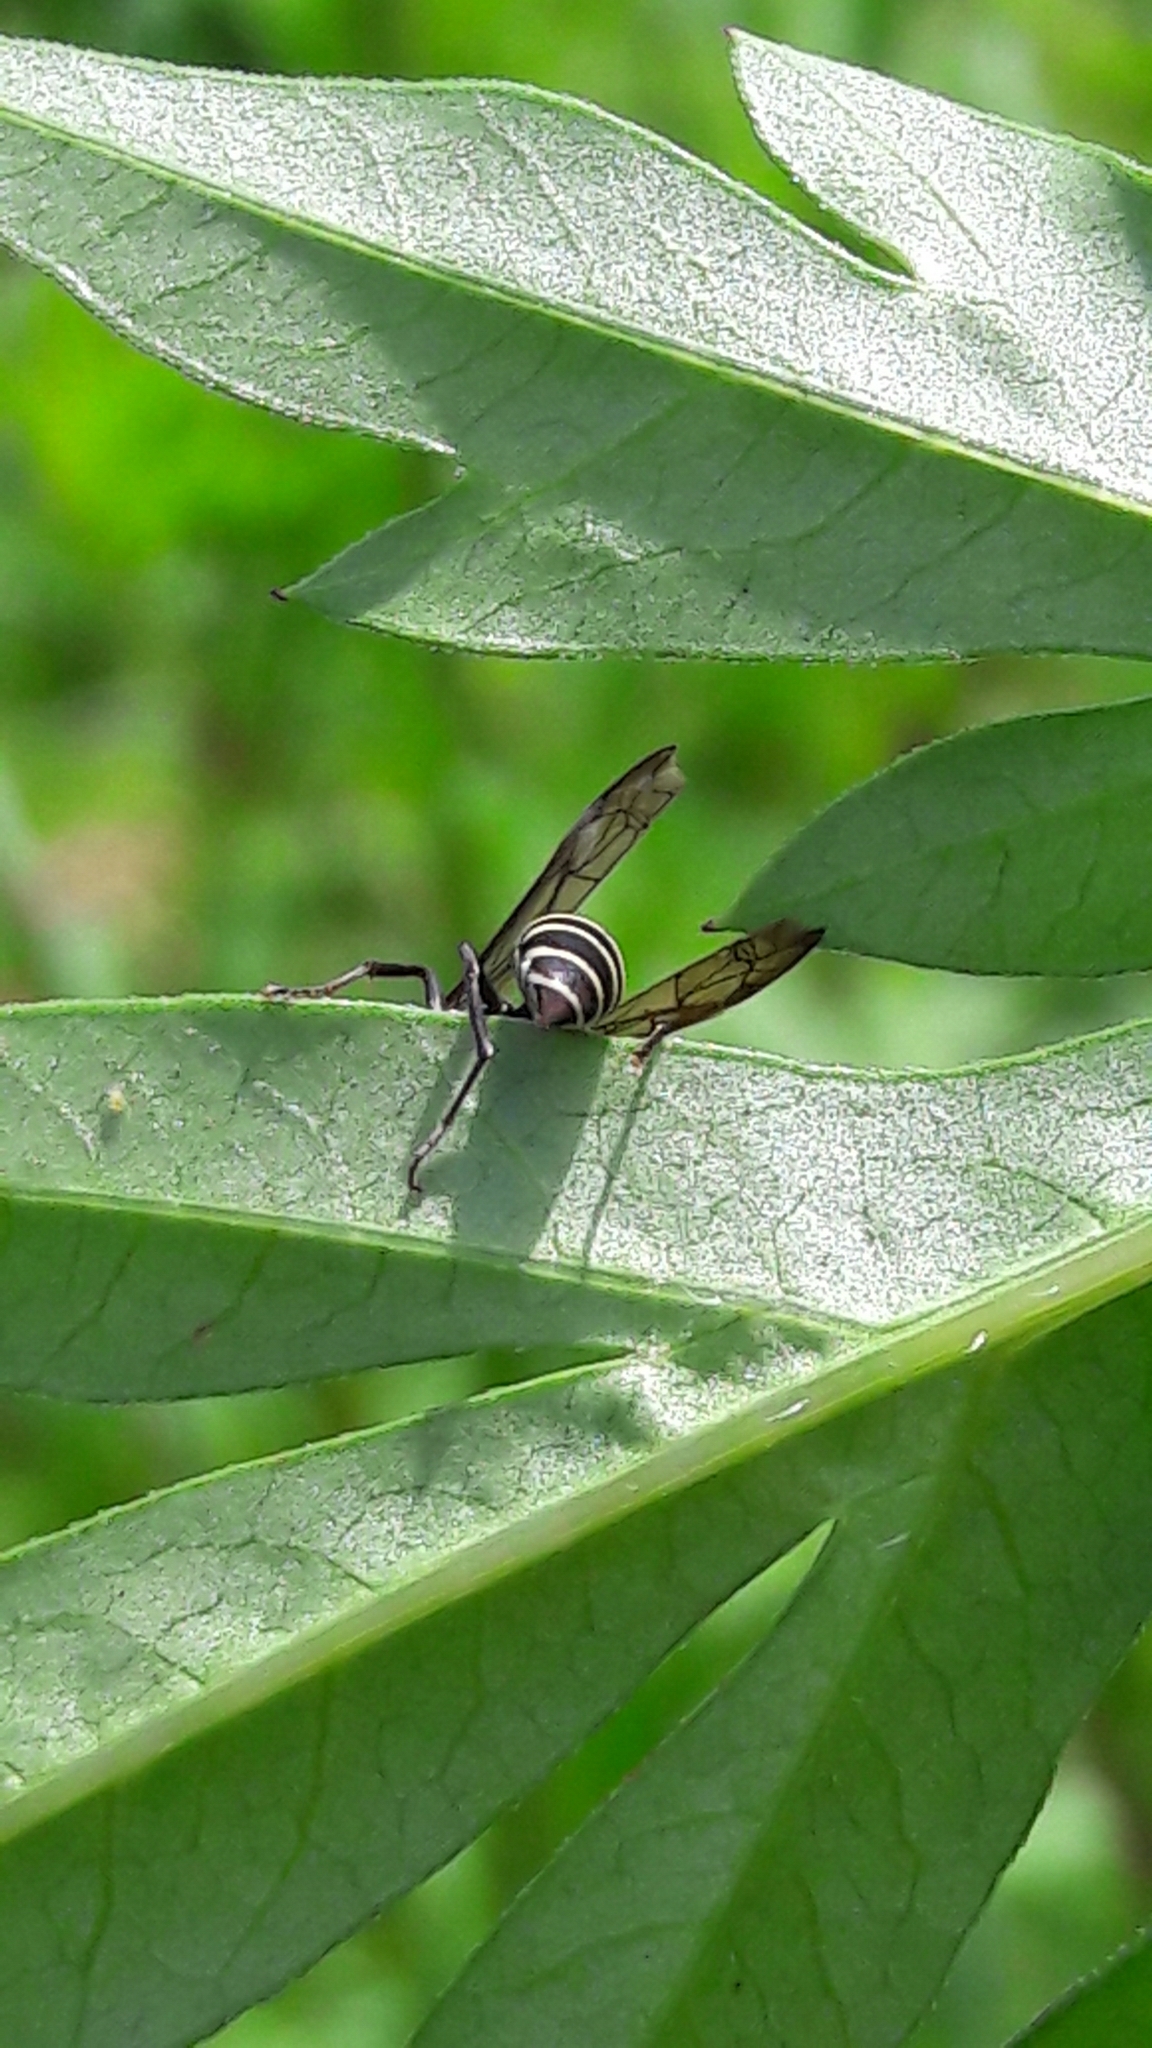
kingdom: Animalia
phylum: Arthropoda
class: Insecta
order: Hymenoptera
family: Eumenidae
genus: Polybia
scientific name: Polybia occidentalis
